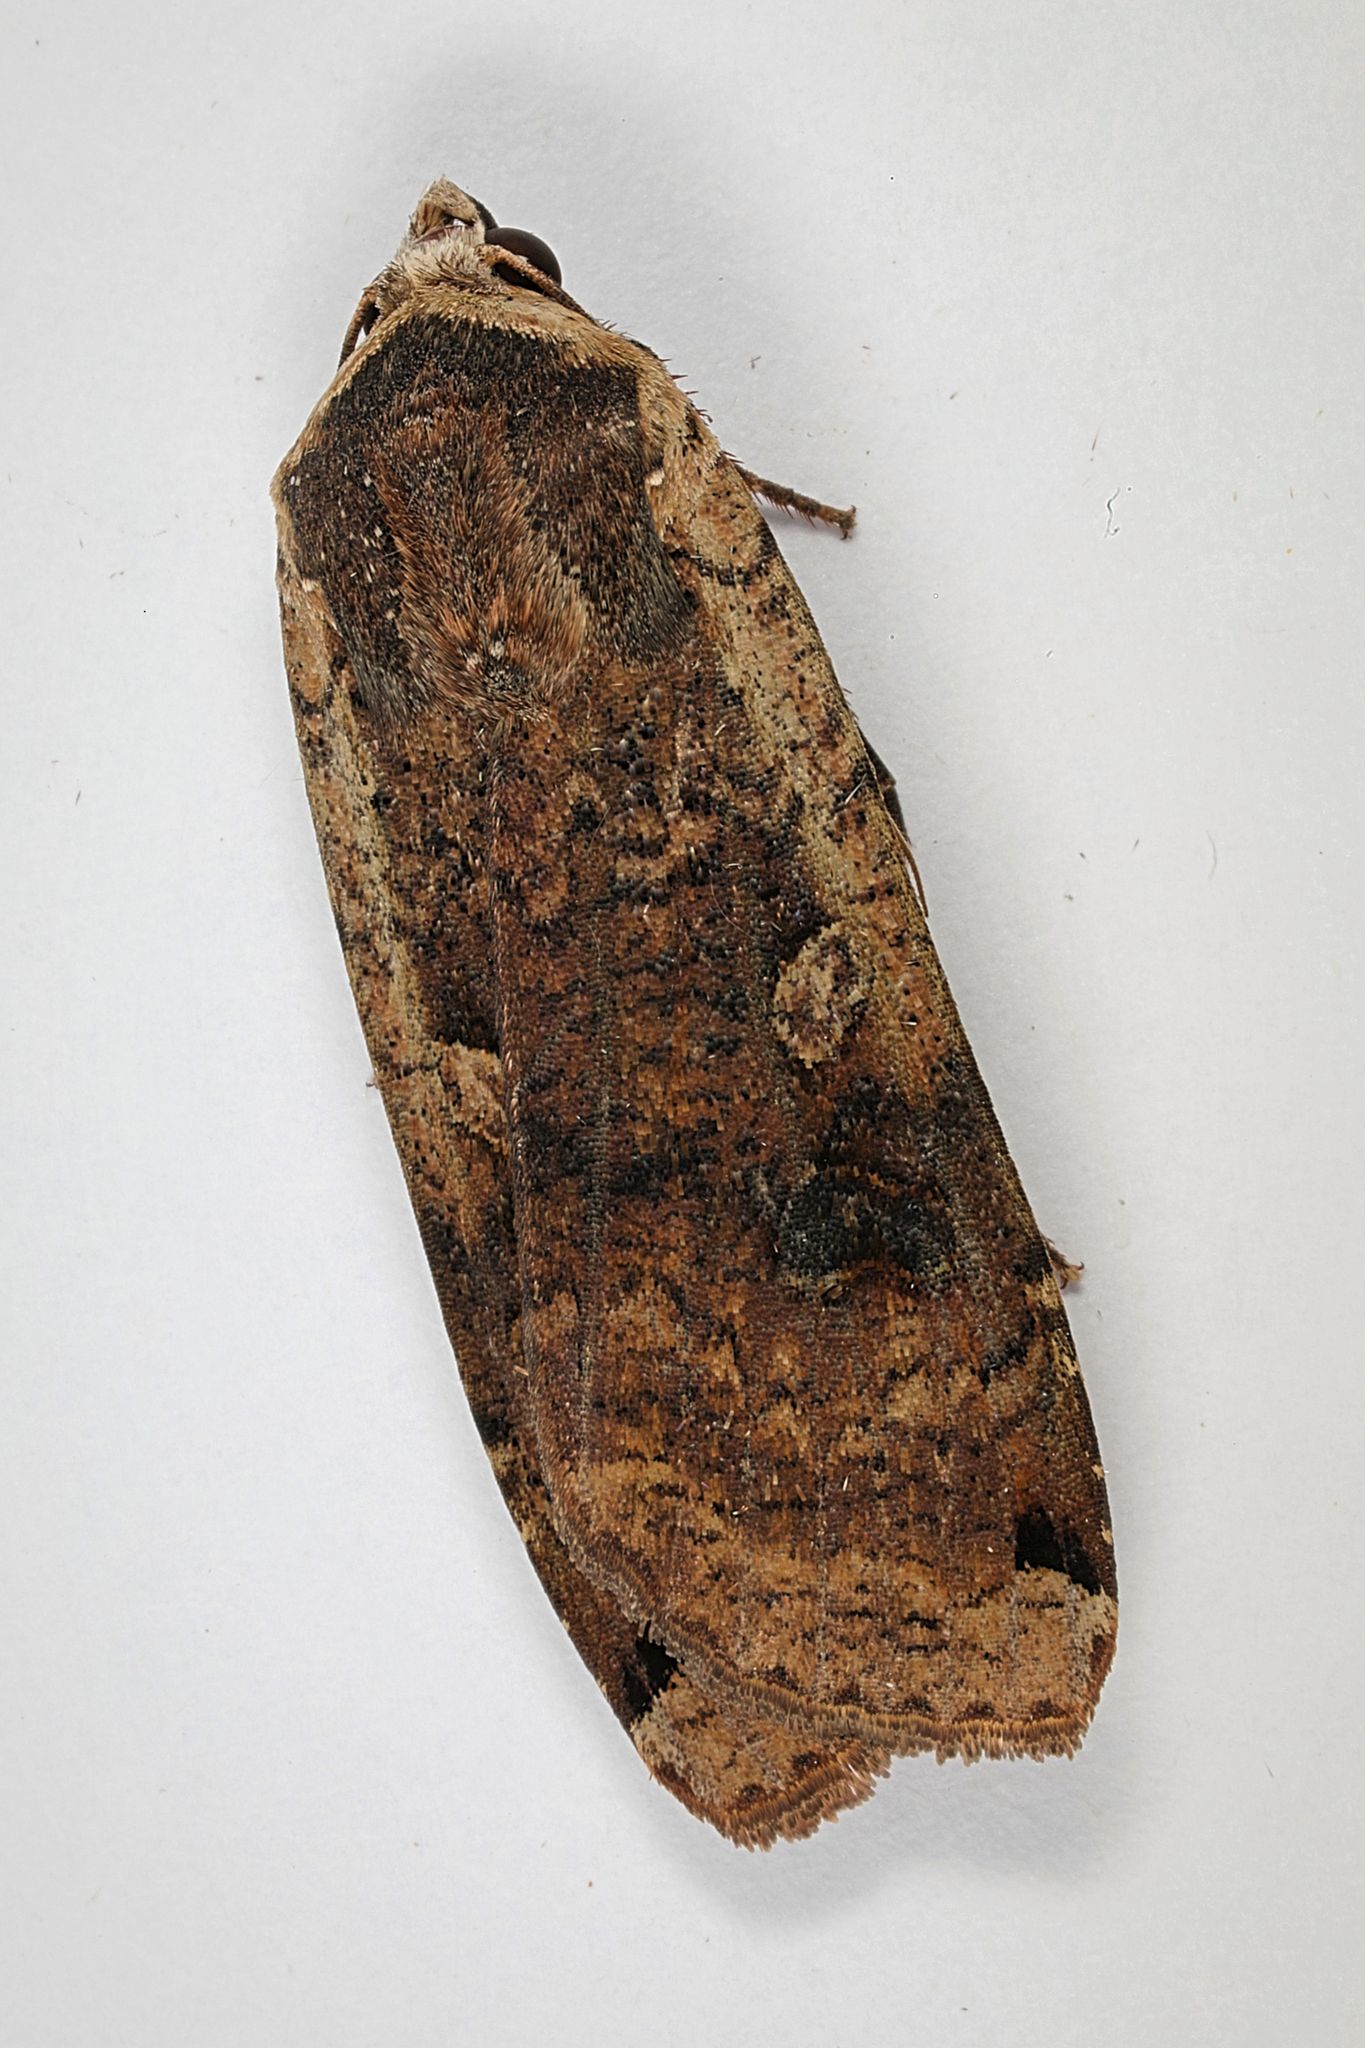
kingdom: Animalia
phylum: Arthropoda
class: Insecta
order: Lepidoptera
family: Noctuidae
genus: Noctua
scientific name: Noctua pronuba
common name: Large yellow underwing
